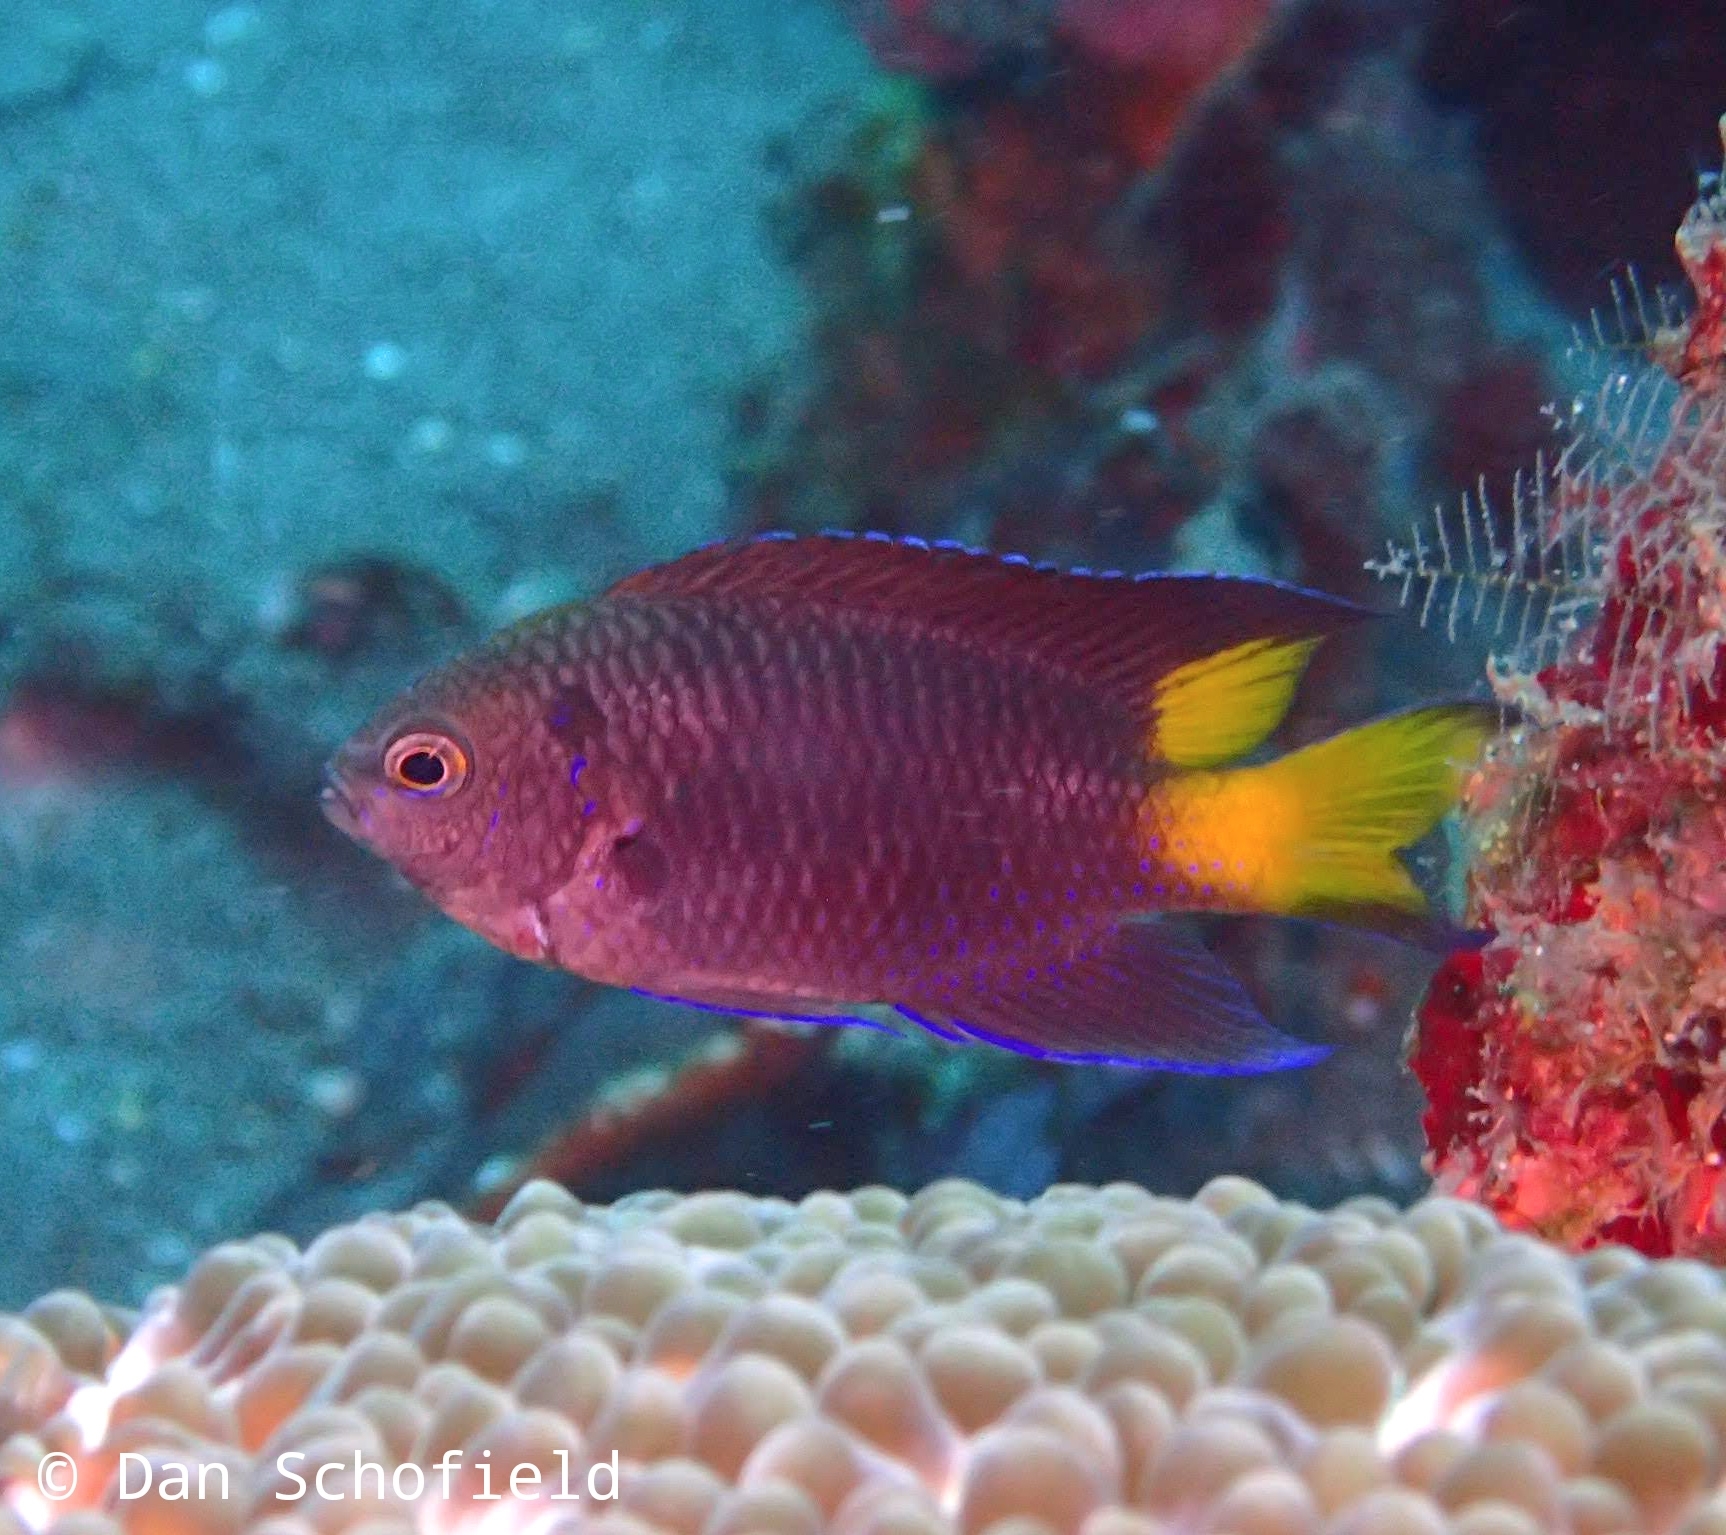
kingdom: Animalia
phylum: Chordata
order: Perciformes
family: Pomacentridae
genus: Neopomacentrus
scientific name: Neopomacentrus violascens
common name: Violet demoiselle
